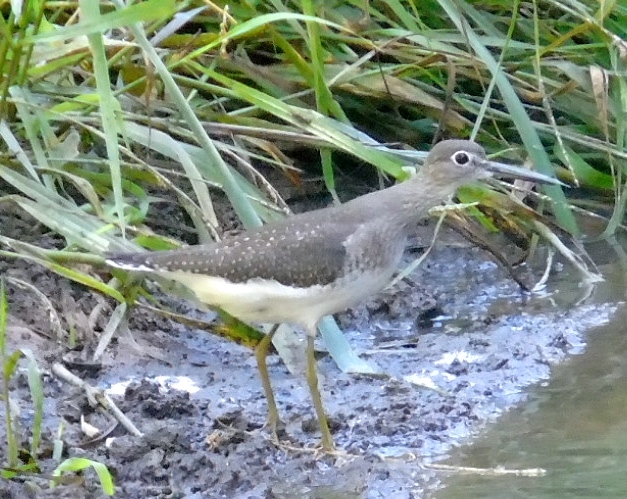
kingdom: Animalia
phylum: Chordata
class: Aves
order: Charadriiformes
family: Scolopacidae
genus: Tringa
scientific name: Tringa solitaria
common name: Solitary sandpiper
